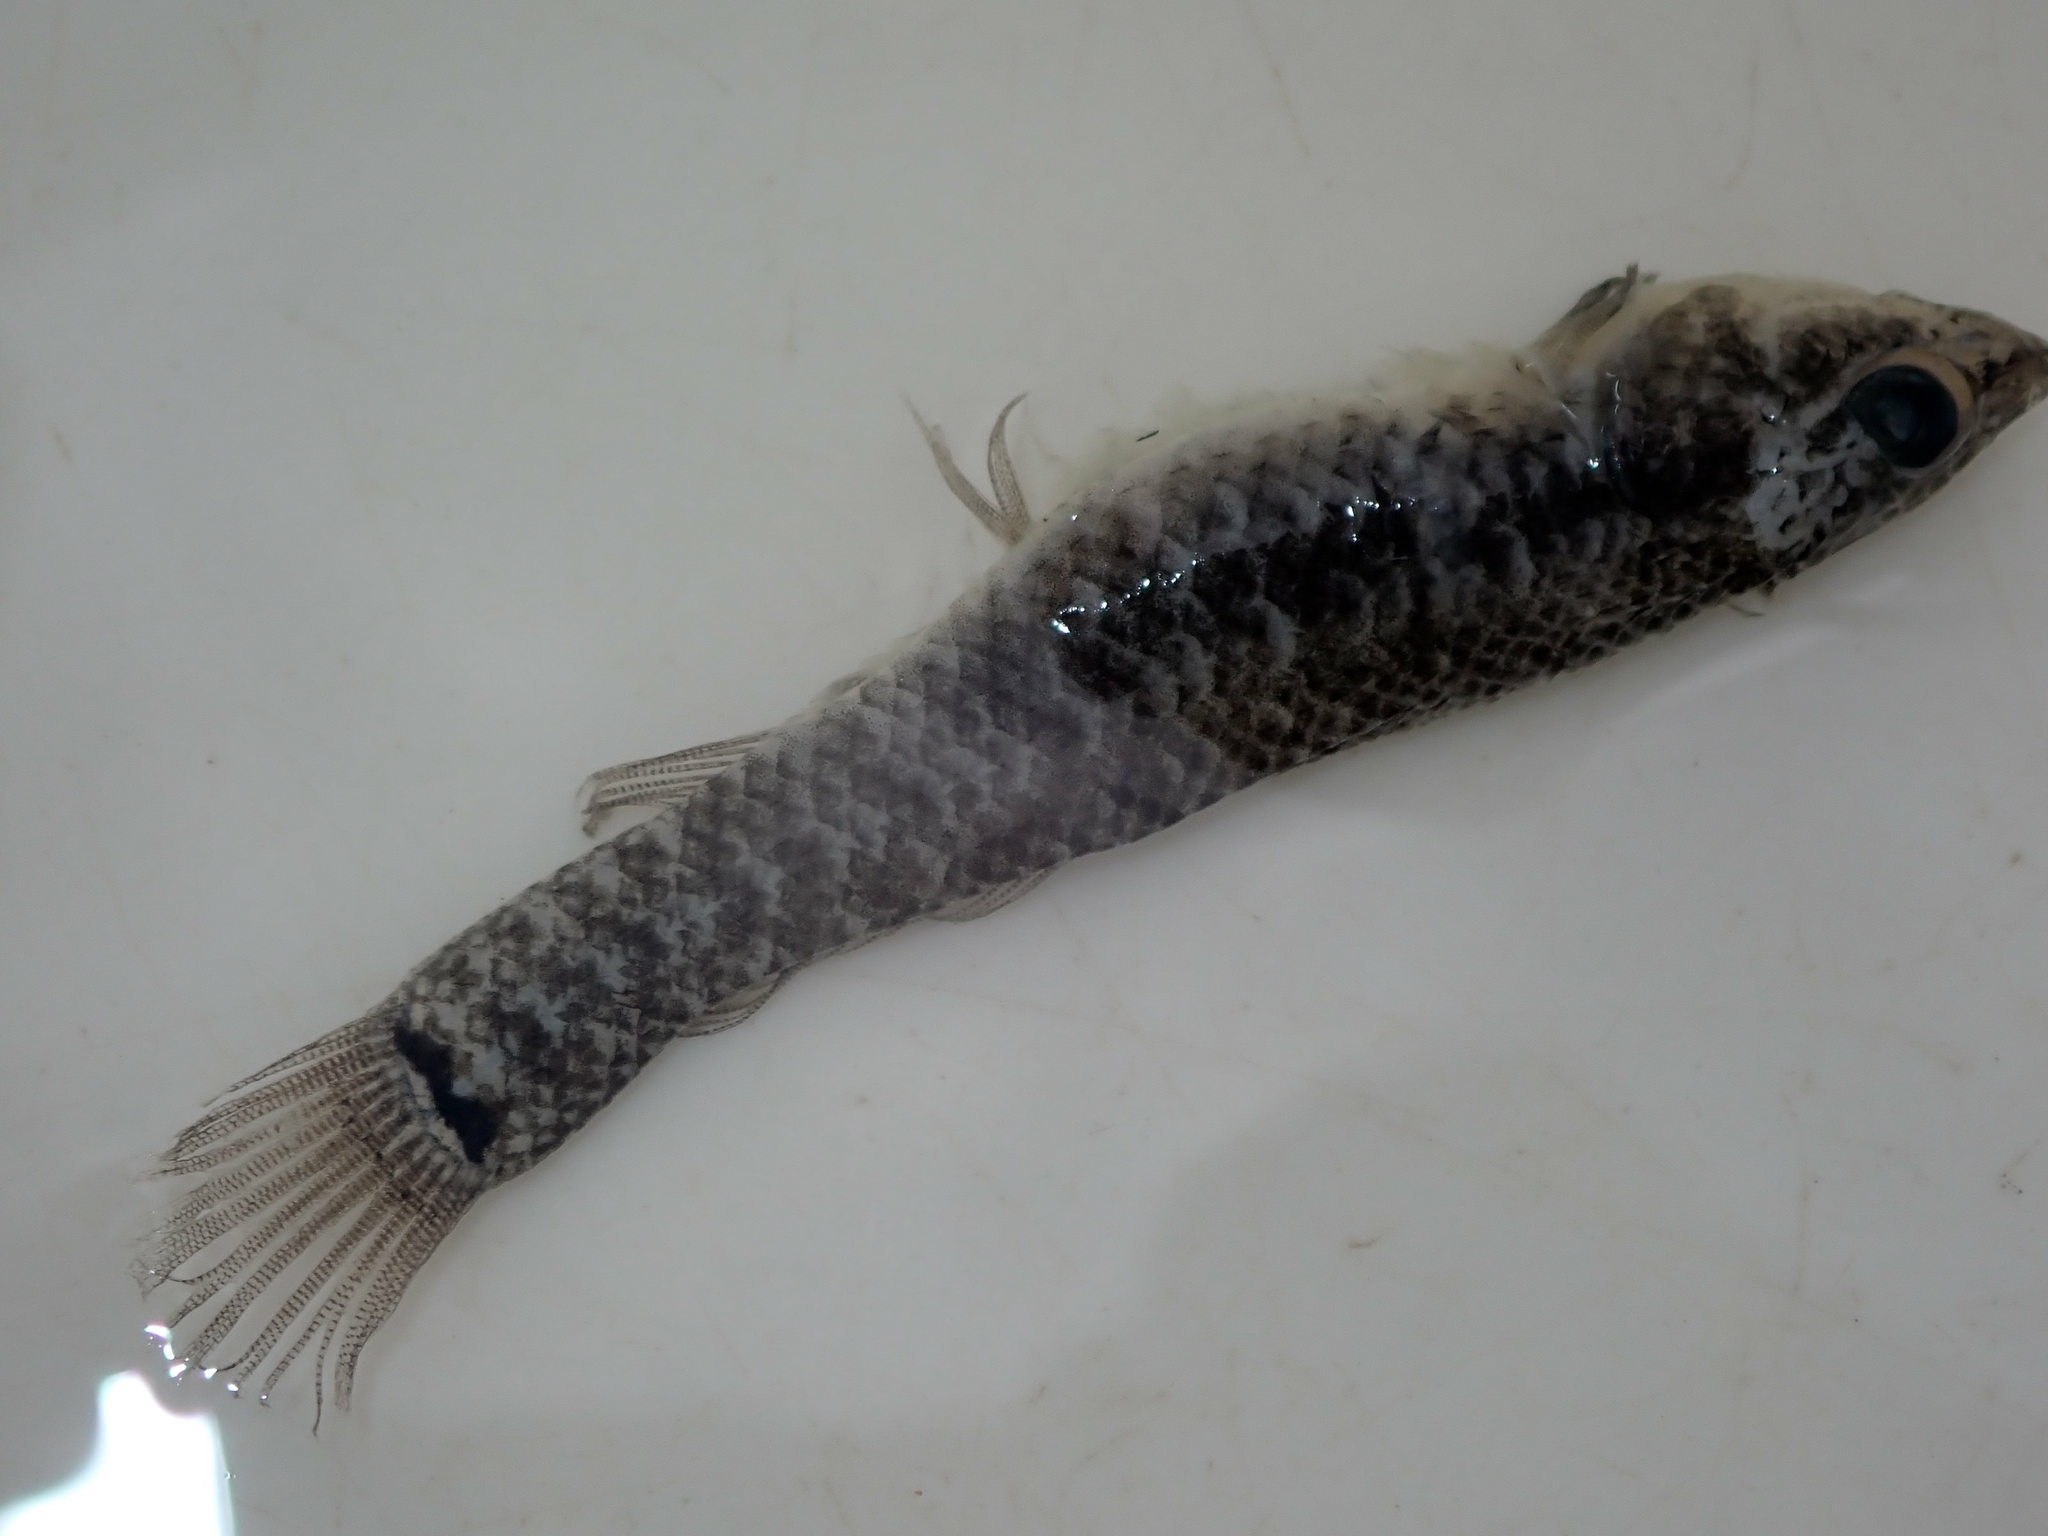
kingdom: Animalia
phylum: Chordata
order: Esociformes
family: Umbridae
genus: Umbra
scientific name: Umbra limi
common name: Central mudminnow
